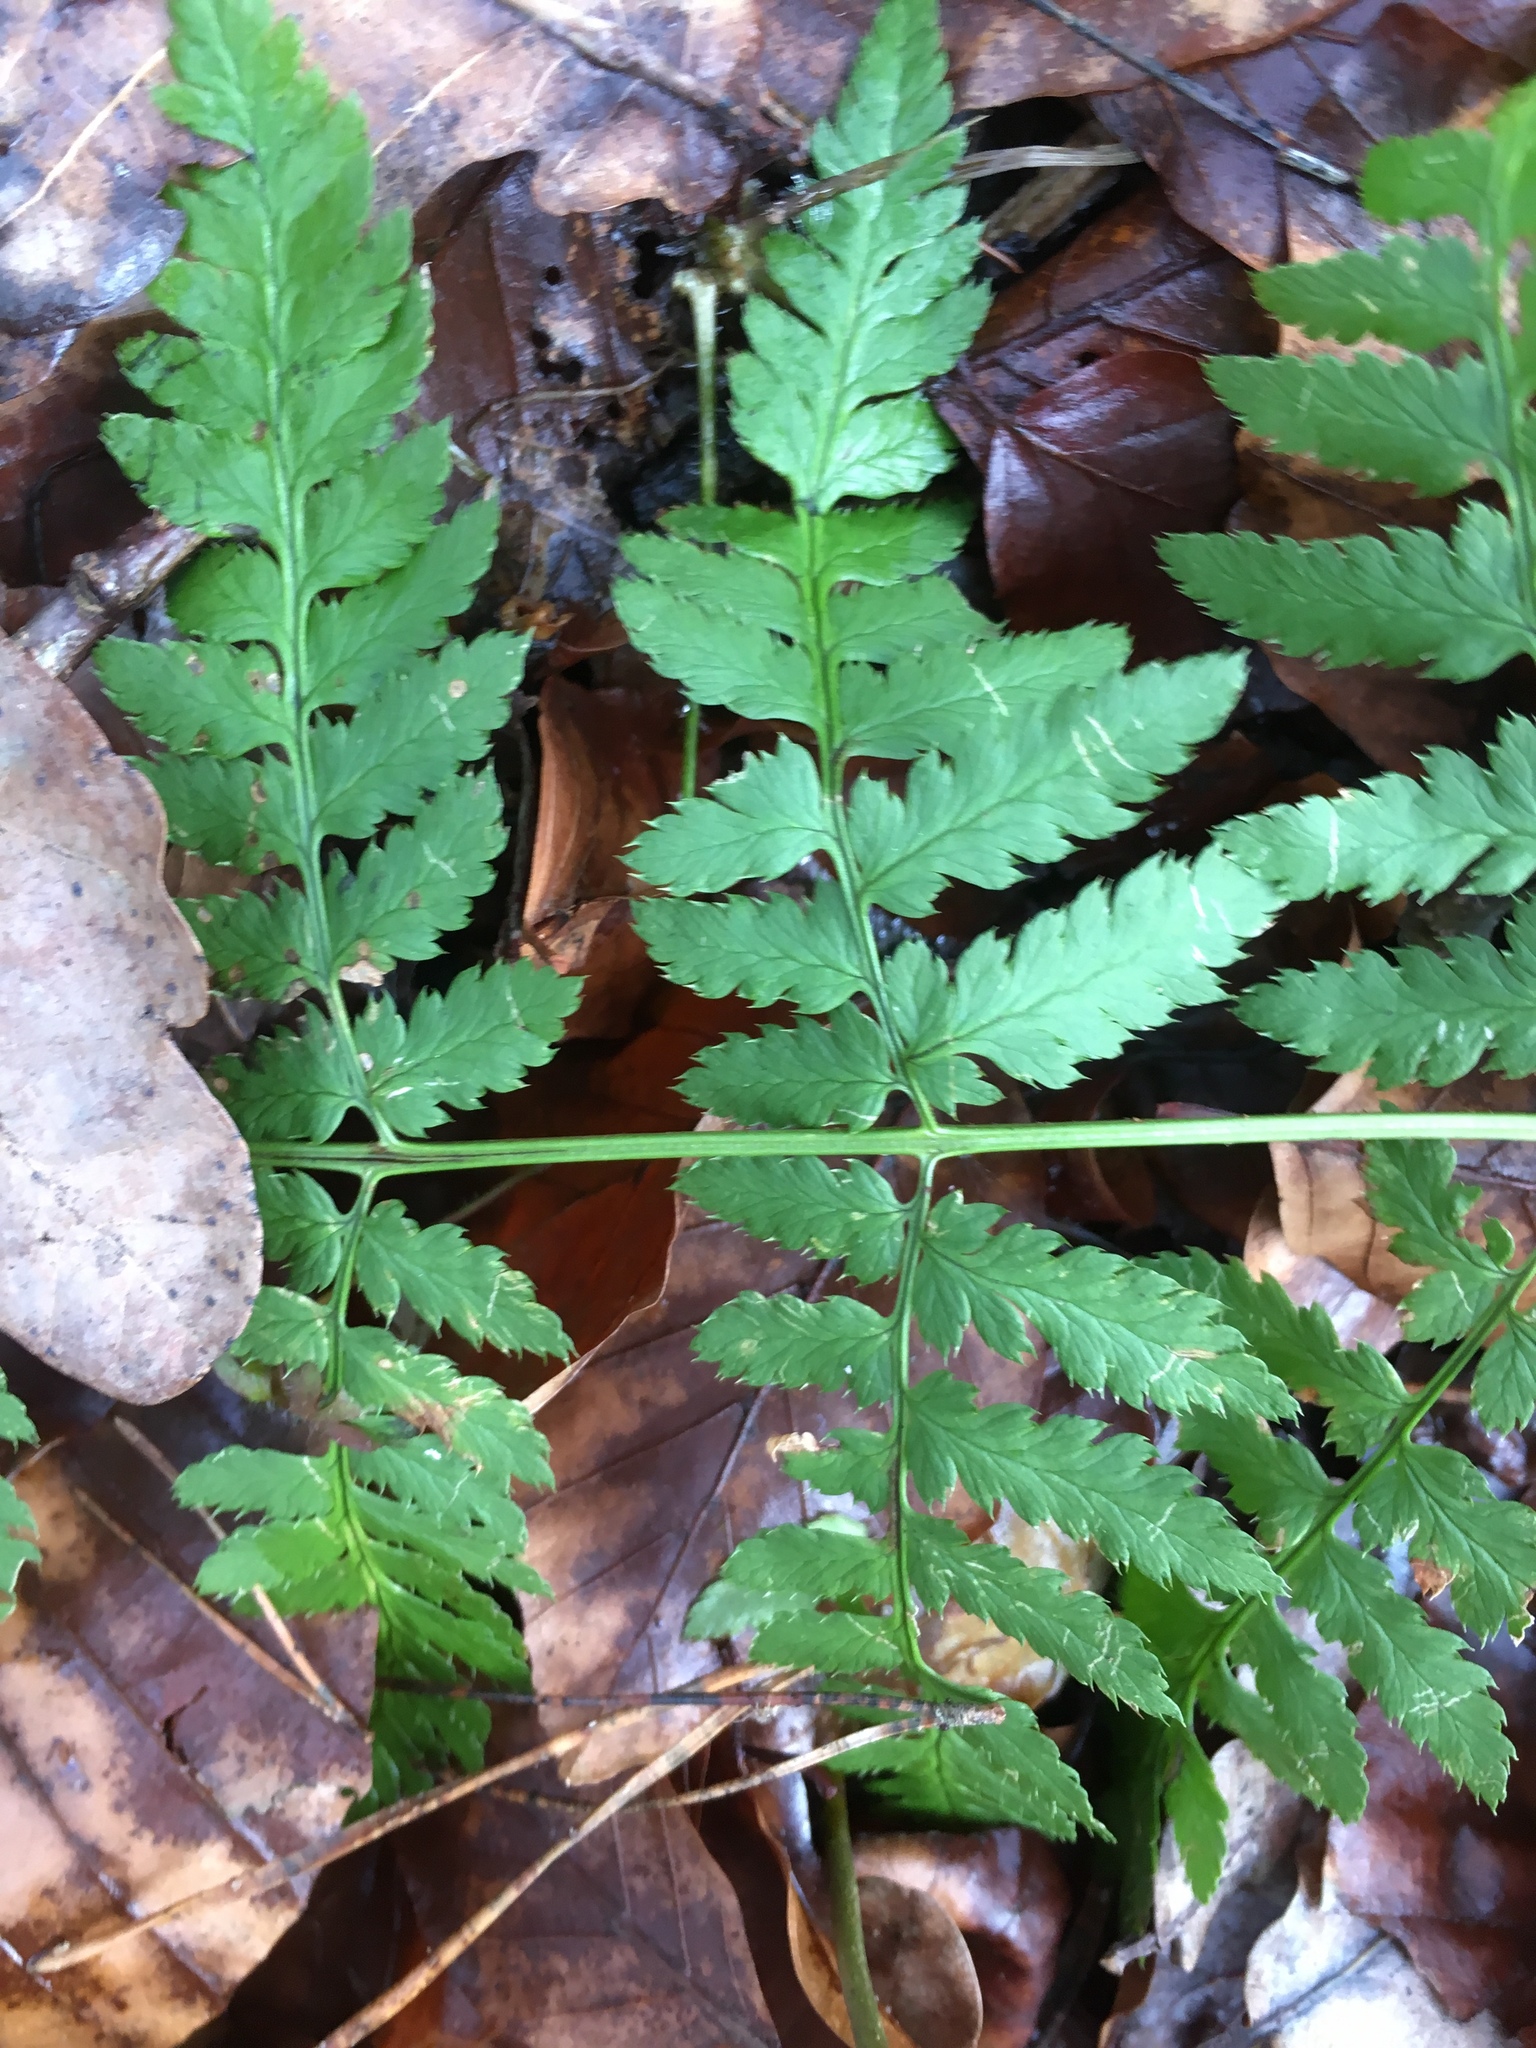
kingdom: Plantae
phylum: Tracheophyta
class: Polypodiopsida
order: Polypodiales
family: Dryopteridaceae
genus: Dryopteris
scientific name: Dryopteris carthusiana
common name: Narrow buckler-fern
